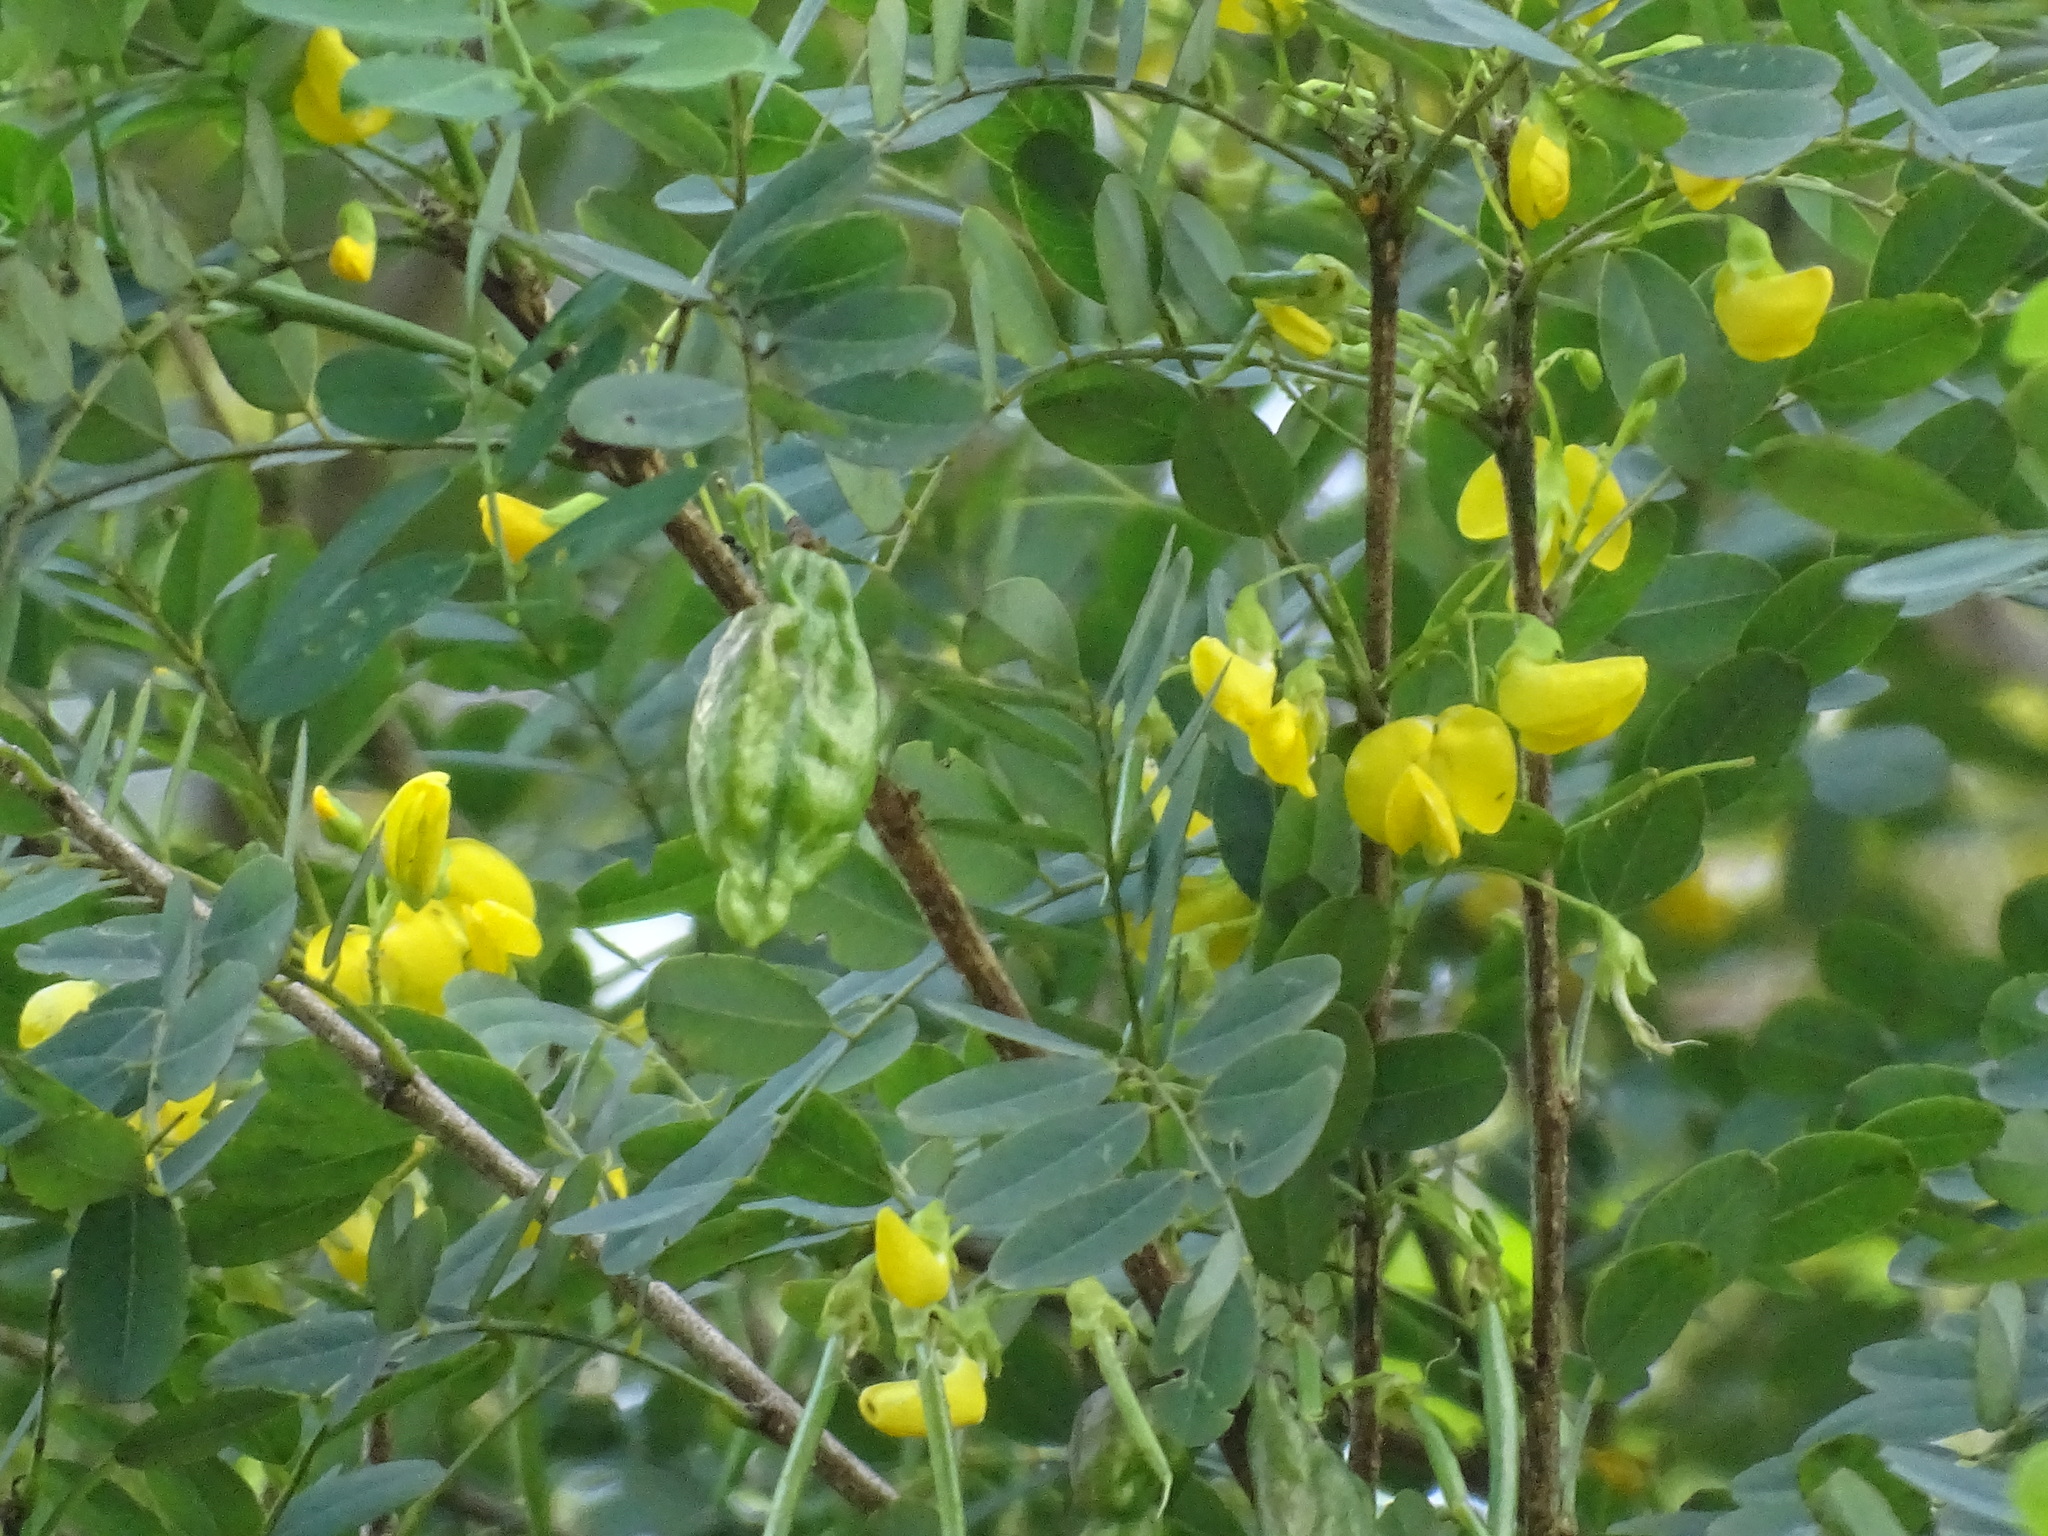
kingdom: Plantae
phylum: Tracheophyta
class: Magnoliopsida
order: Fabales
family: Fabaceae
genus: Diphysa
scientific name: Diphysa americana
